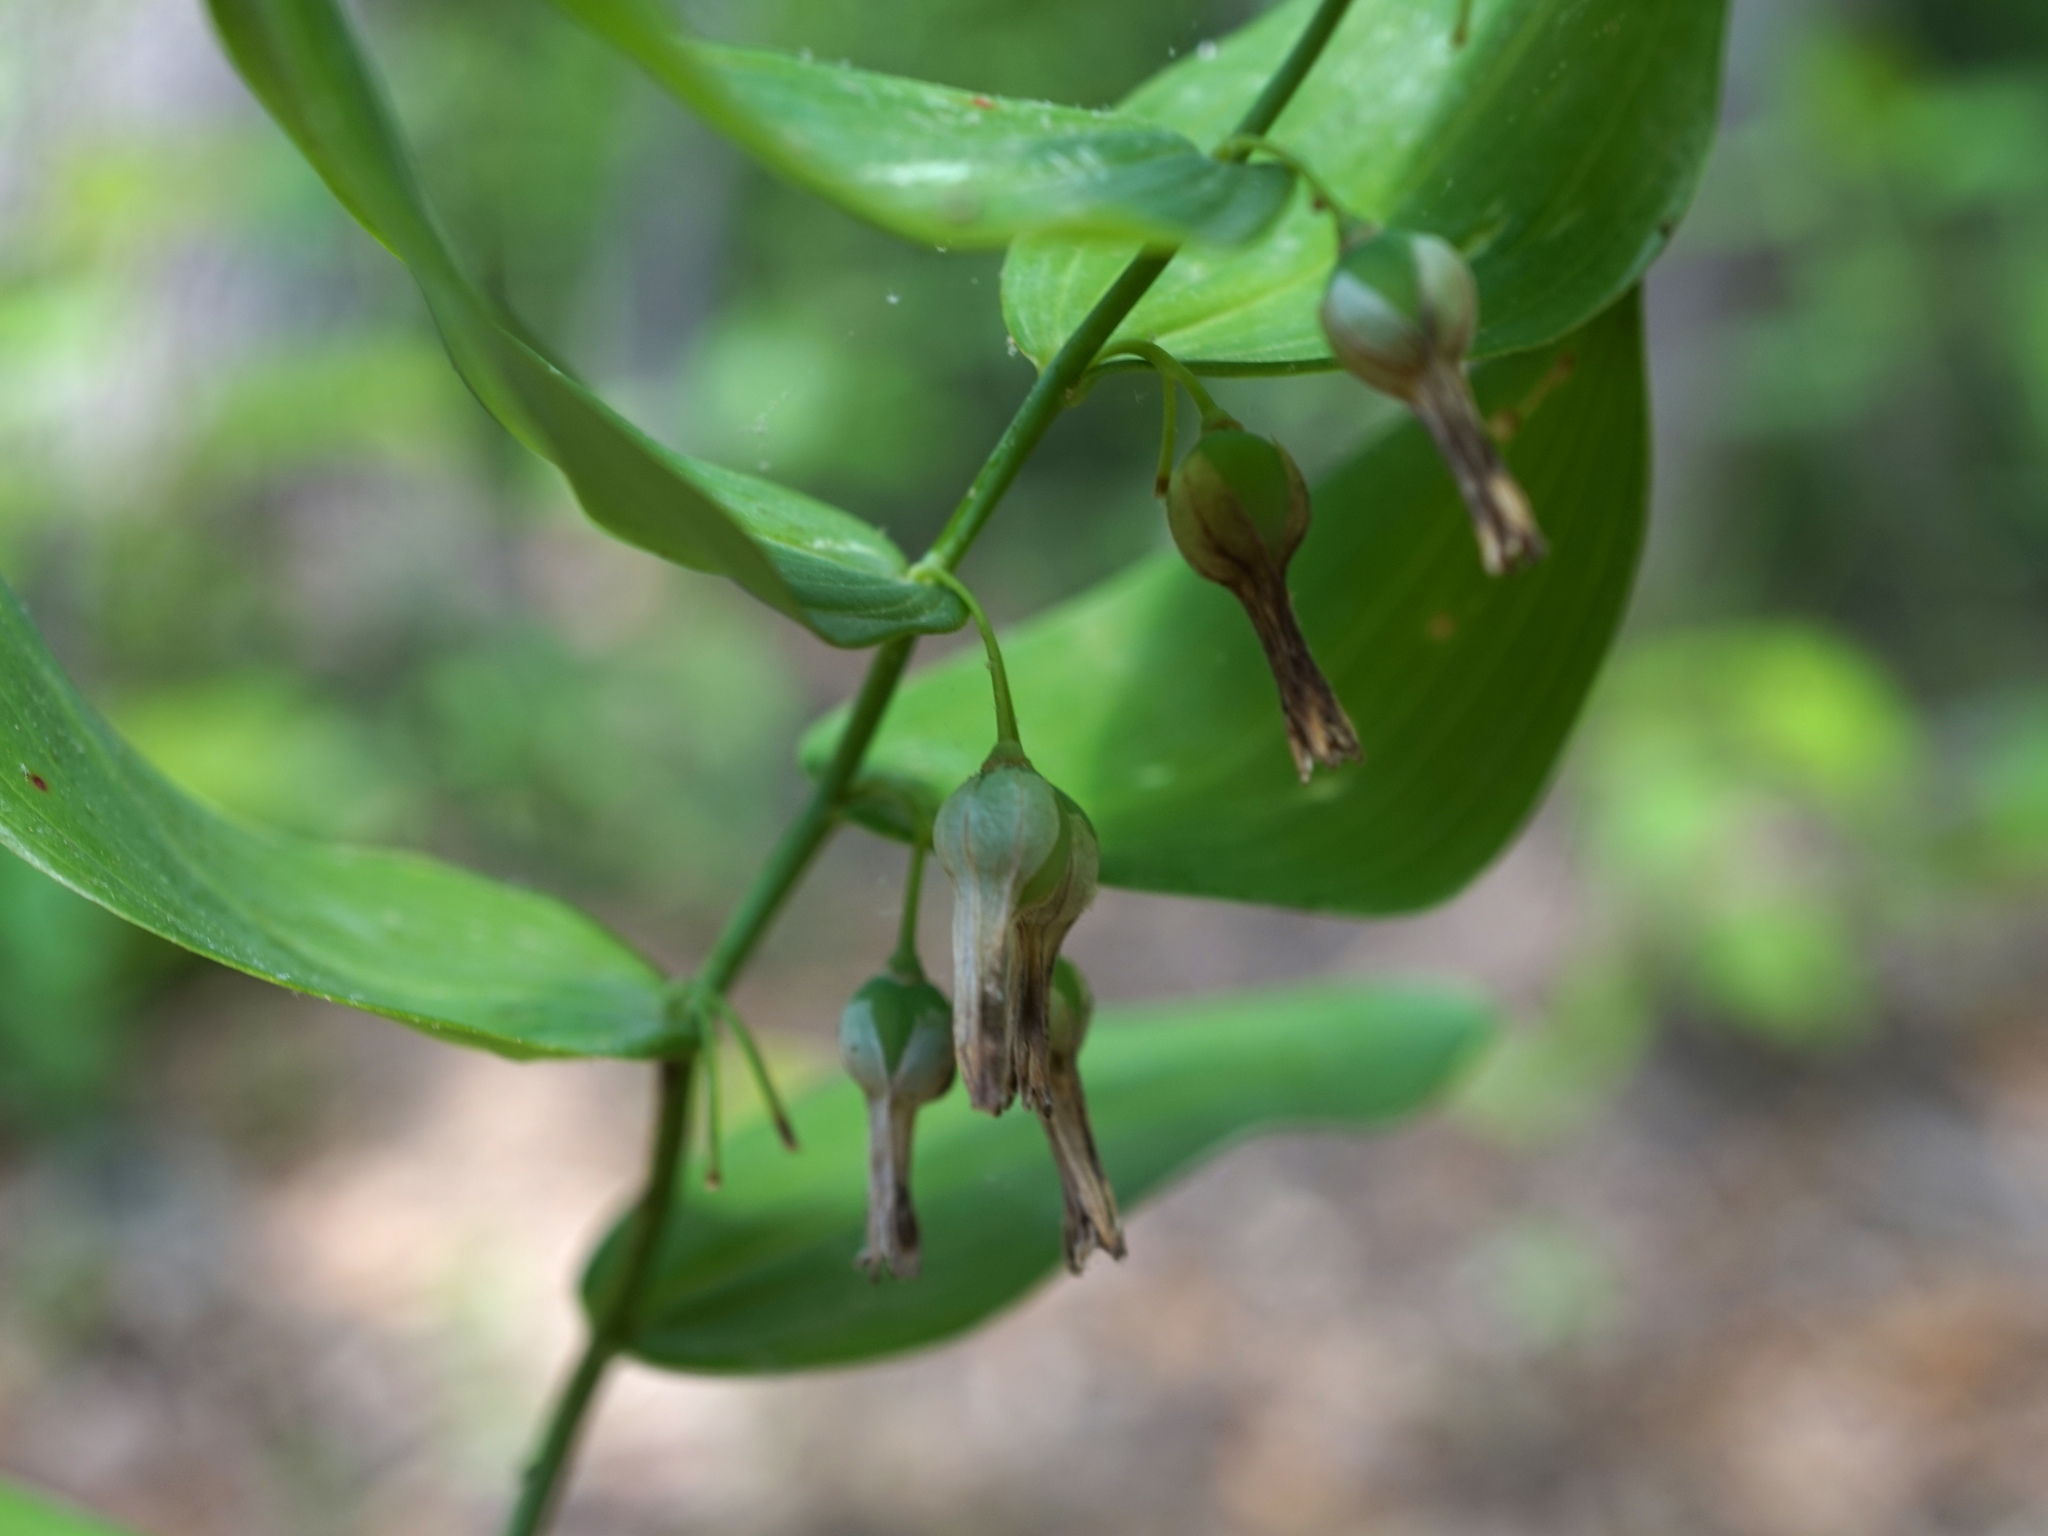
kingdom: Plantae
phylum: Tracheophyta
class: Liliopsida
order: Asparagales
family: Asparagaceae
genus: Polygonatum
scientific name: Polygonatum biflorum
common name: American solomon's-seal
